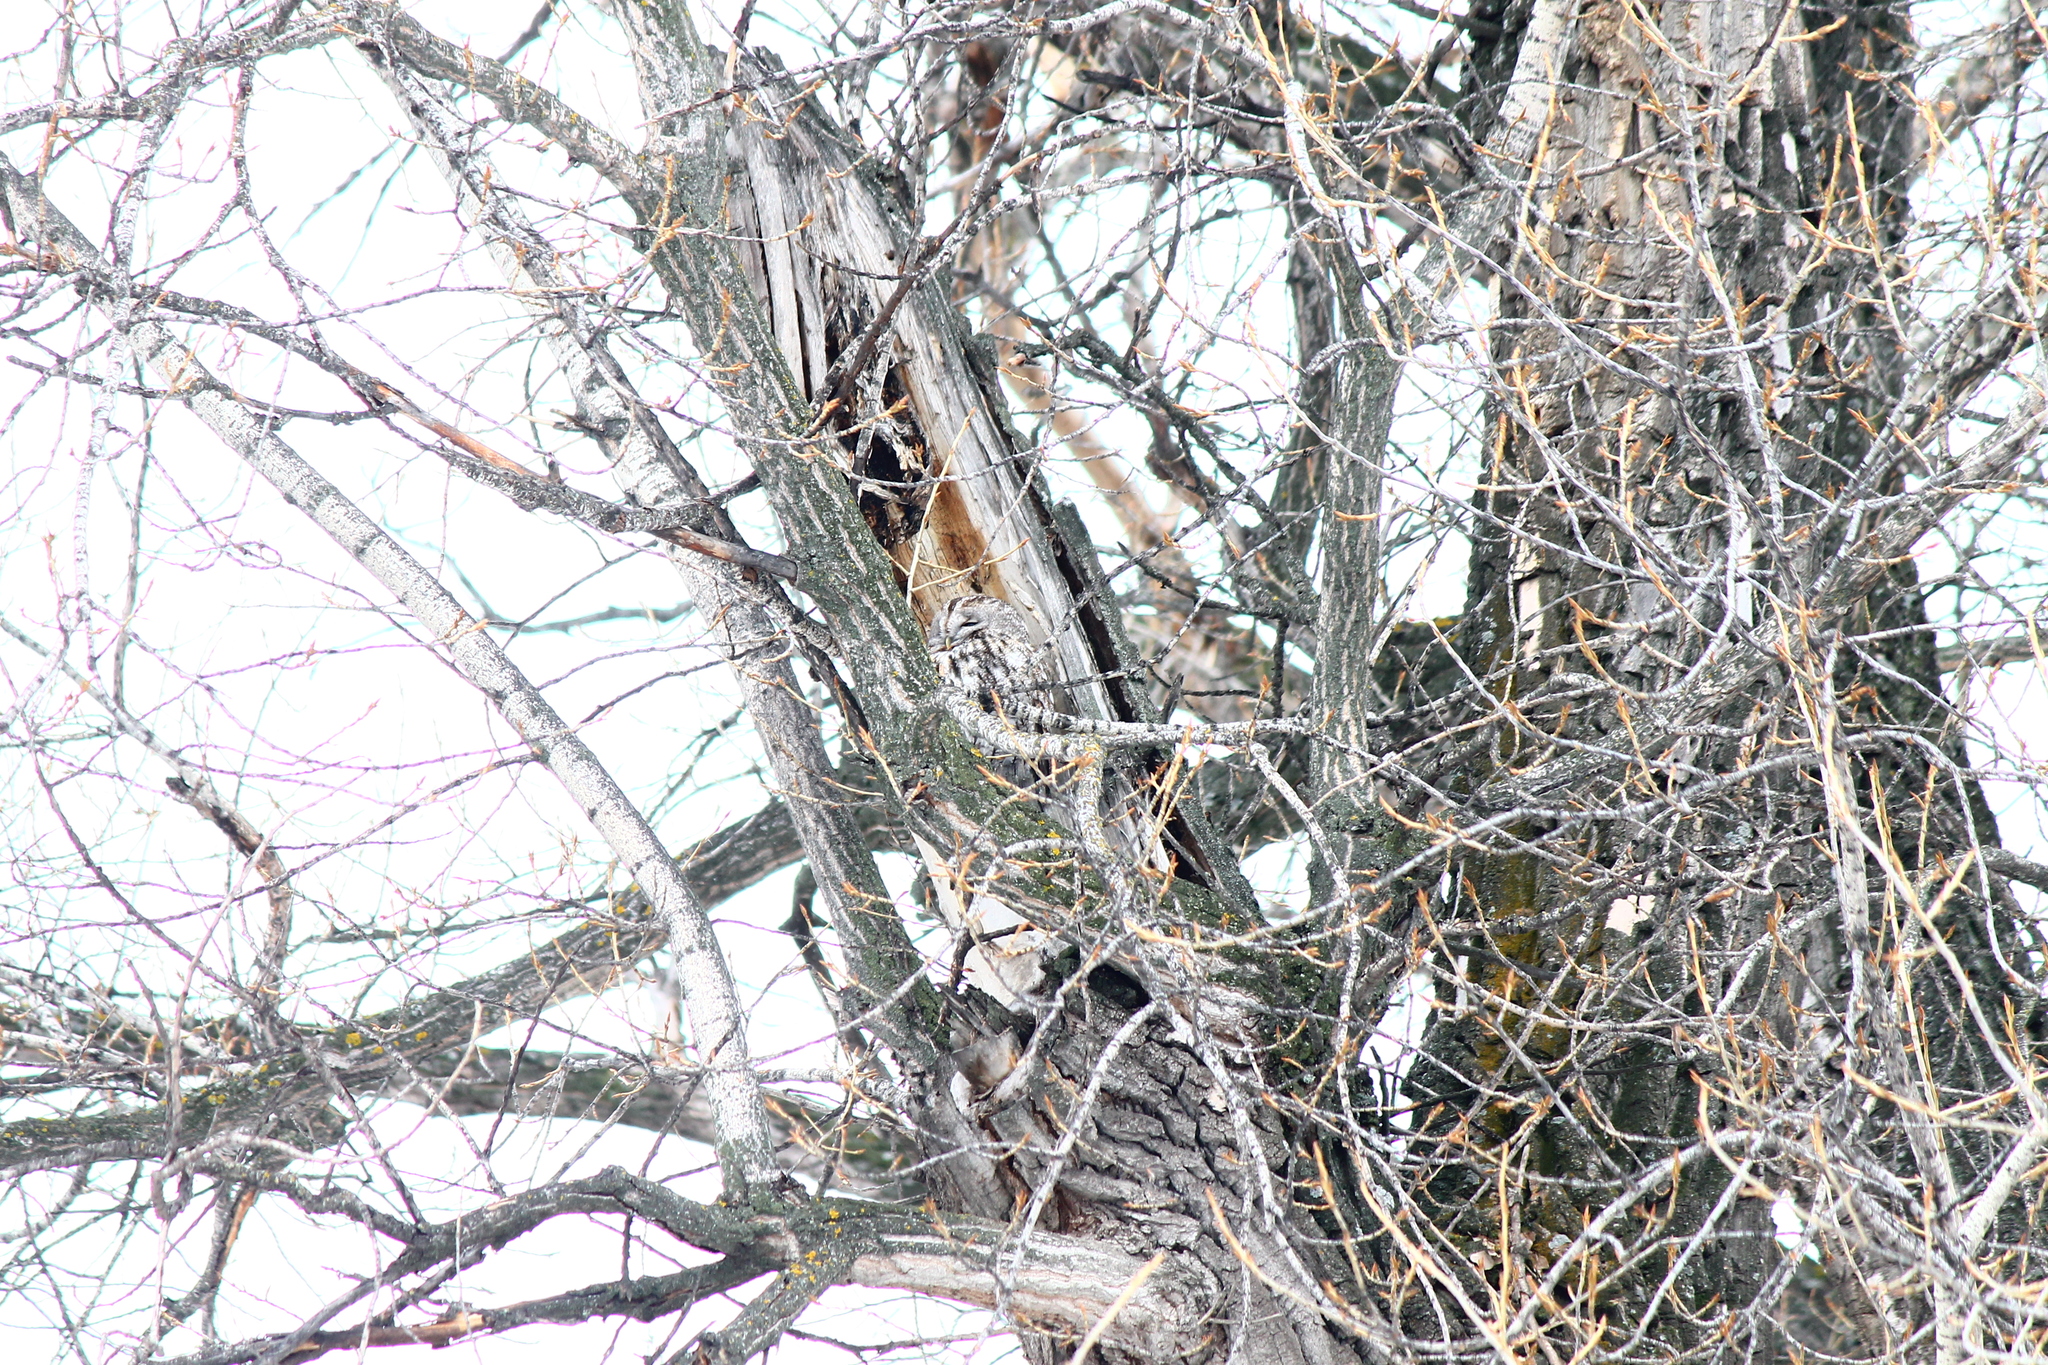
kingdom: Animalia
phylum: Chordata
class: Aves
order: Strigiformes
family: Strigidae
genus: Strix
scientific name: Strix aluco
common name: Tawny owl
